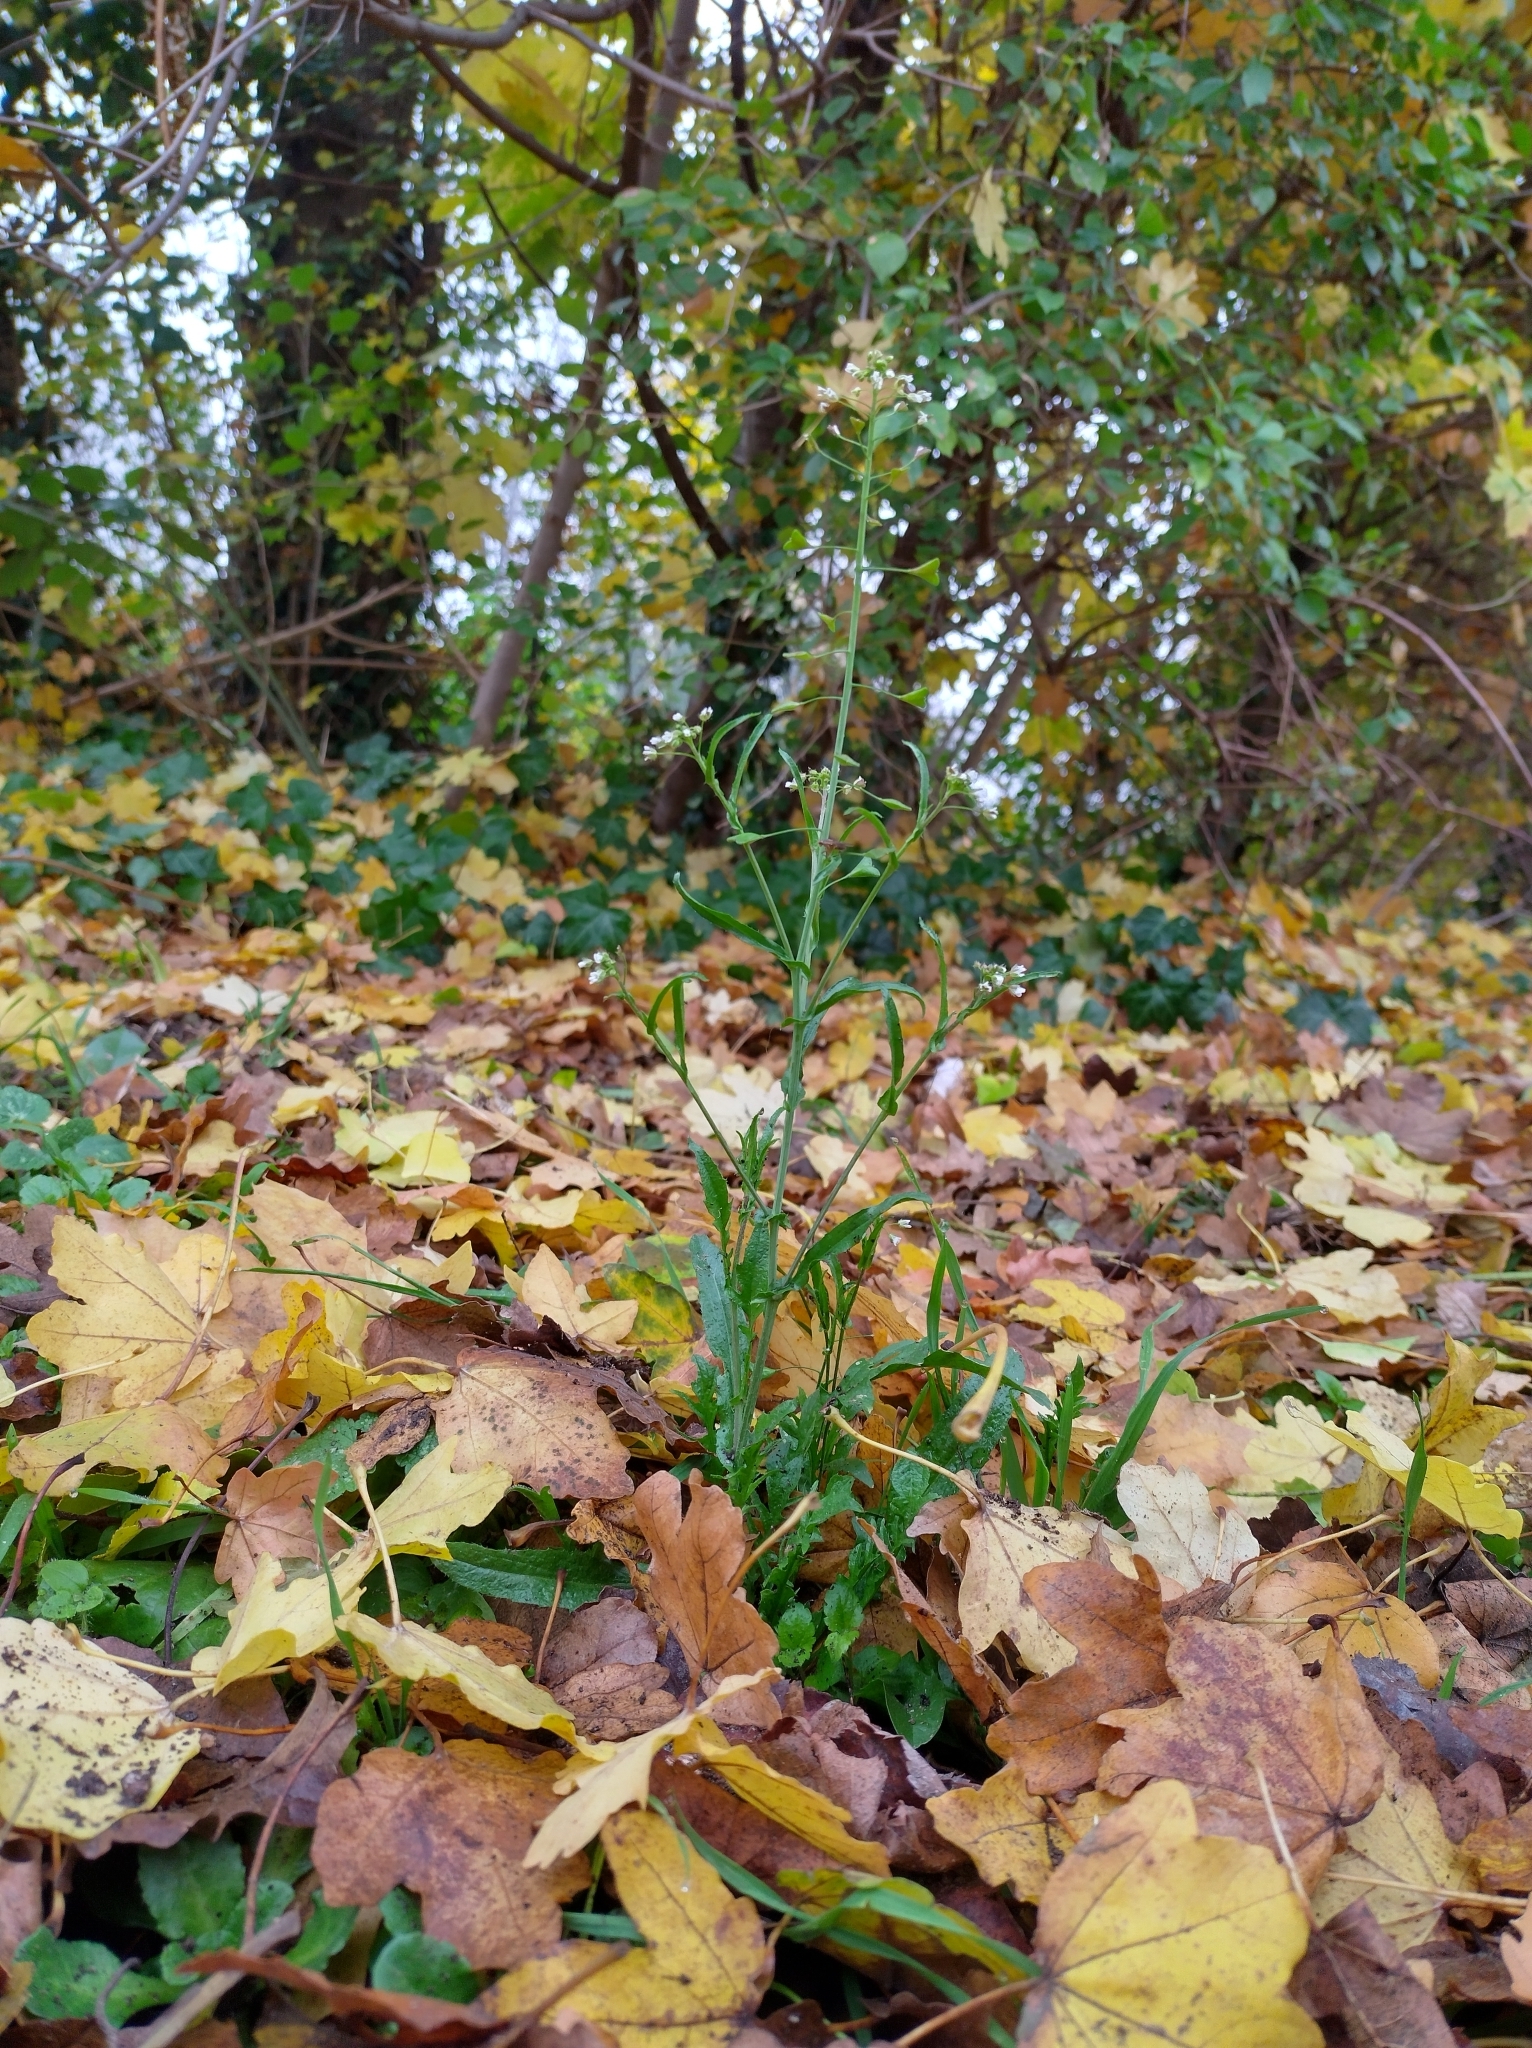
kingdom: Plantae
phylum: Tracheophyta
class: Magnoliopsida
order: Brassicales
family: Brassicaceae
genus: Capsella
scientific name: Capsella bursa-pastoris
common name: Shepherd's purse
